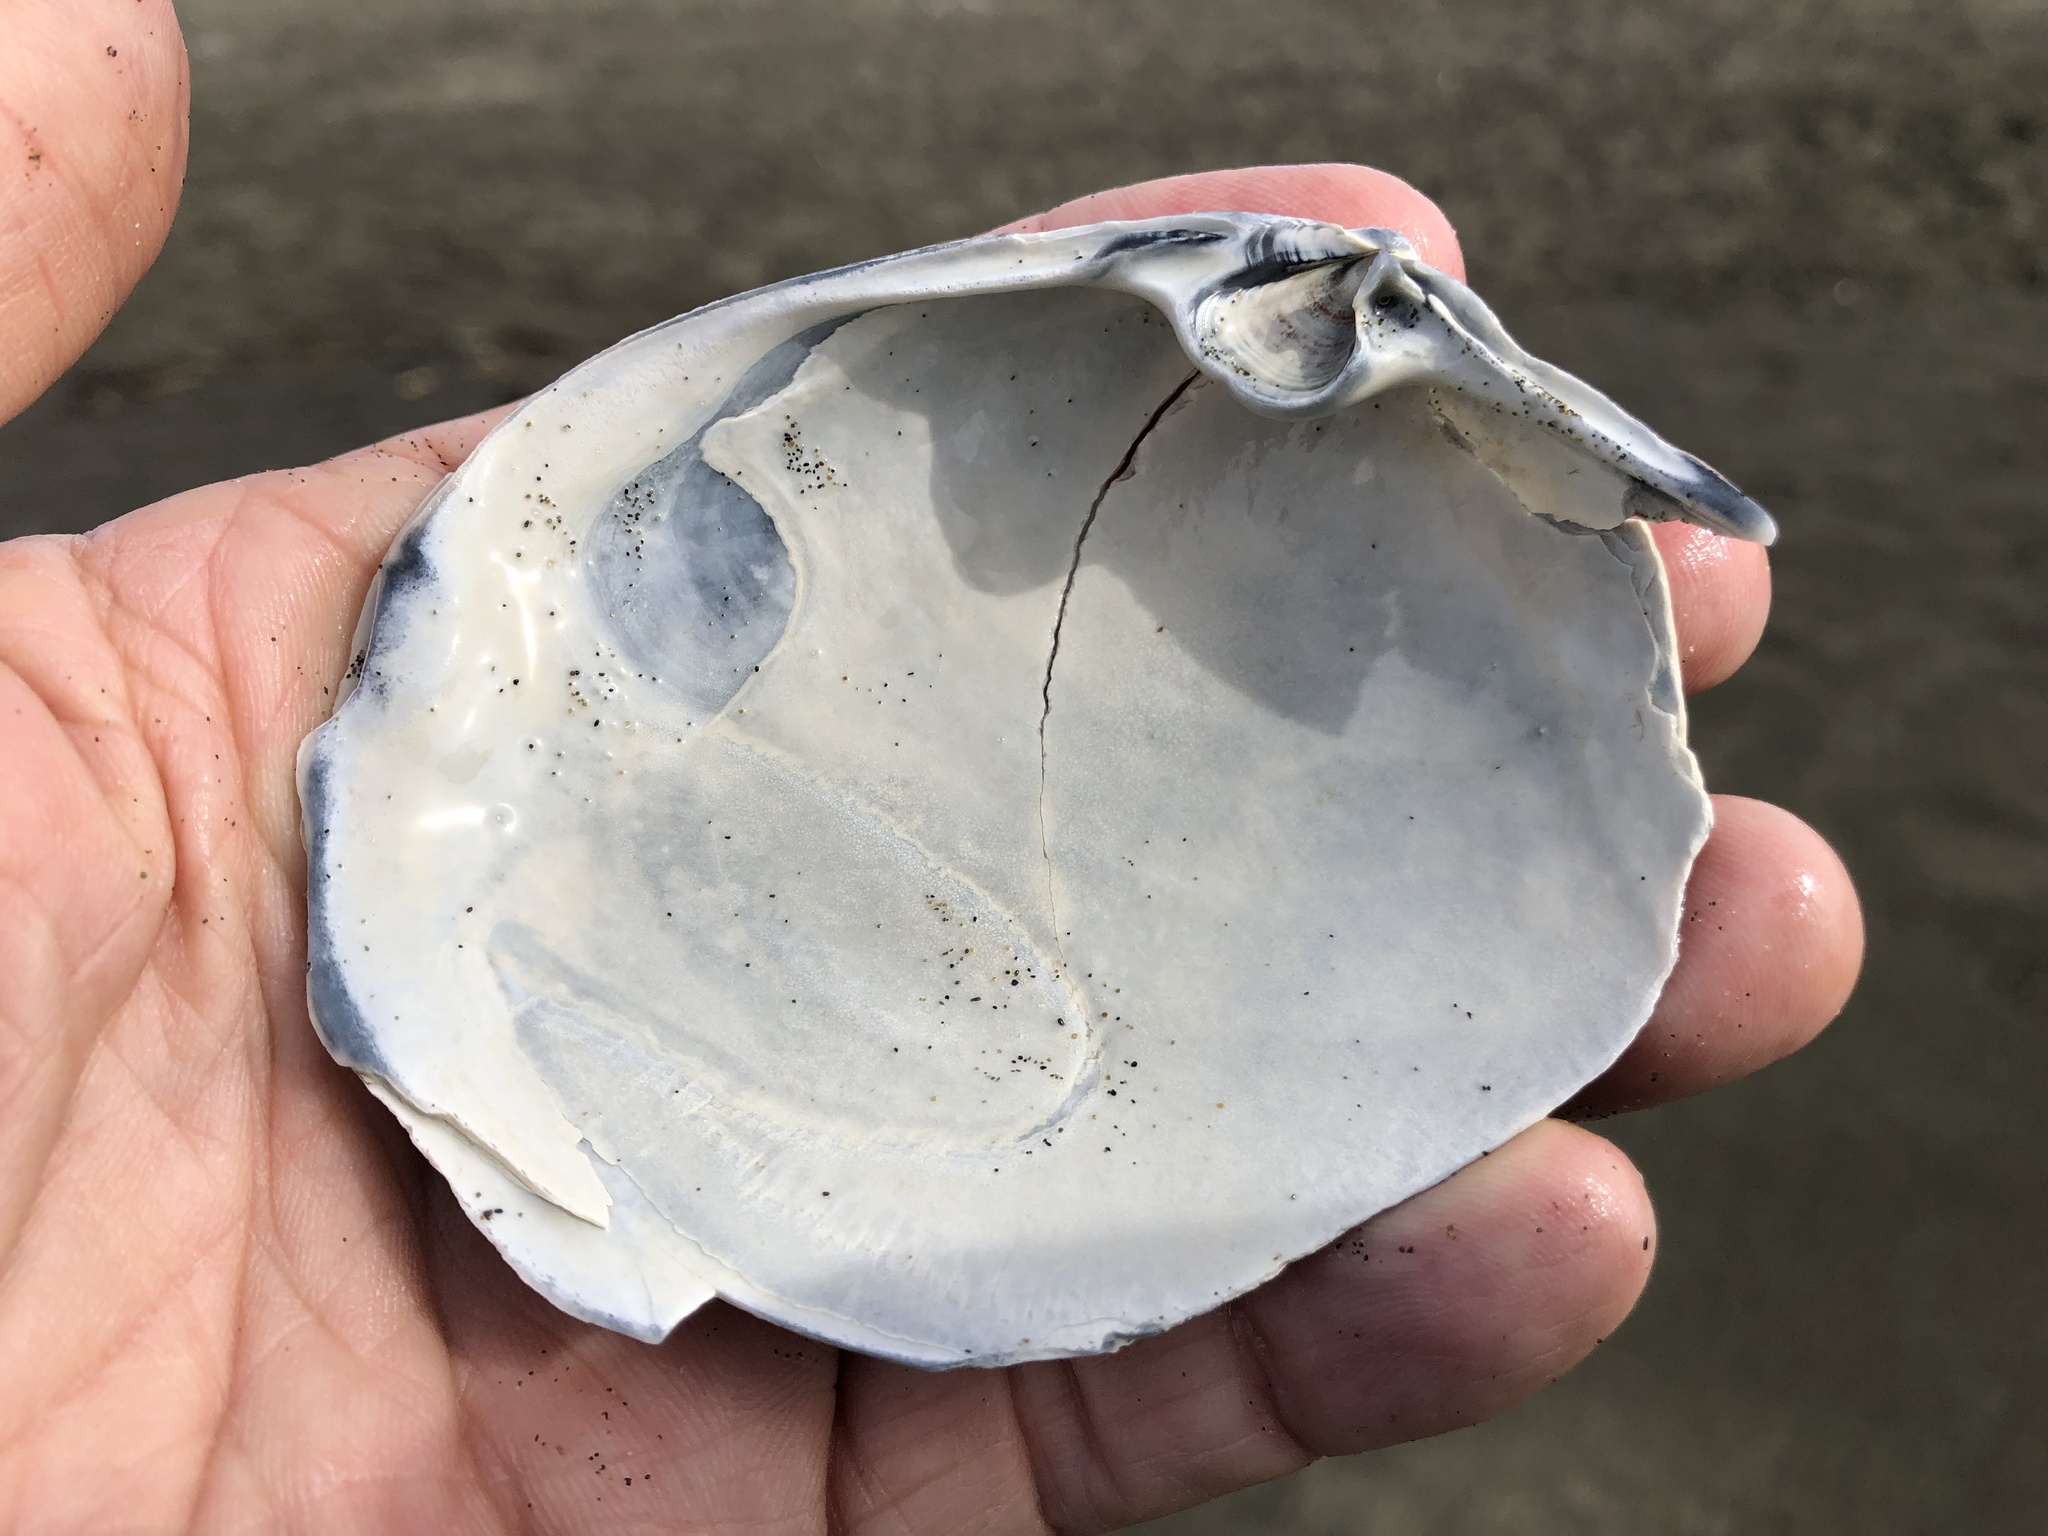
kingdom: Animalia
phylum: Mollusca
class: Bivalvia
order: Venerida
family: Mactridae
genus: Mactromeris
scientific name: Mactromeris catilliformis
